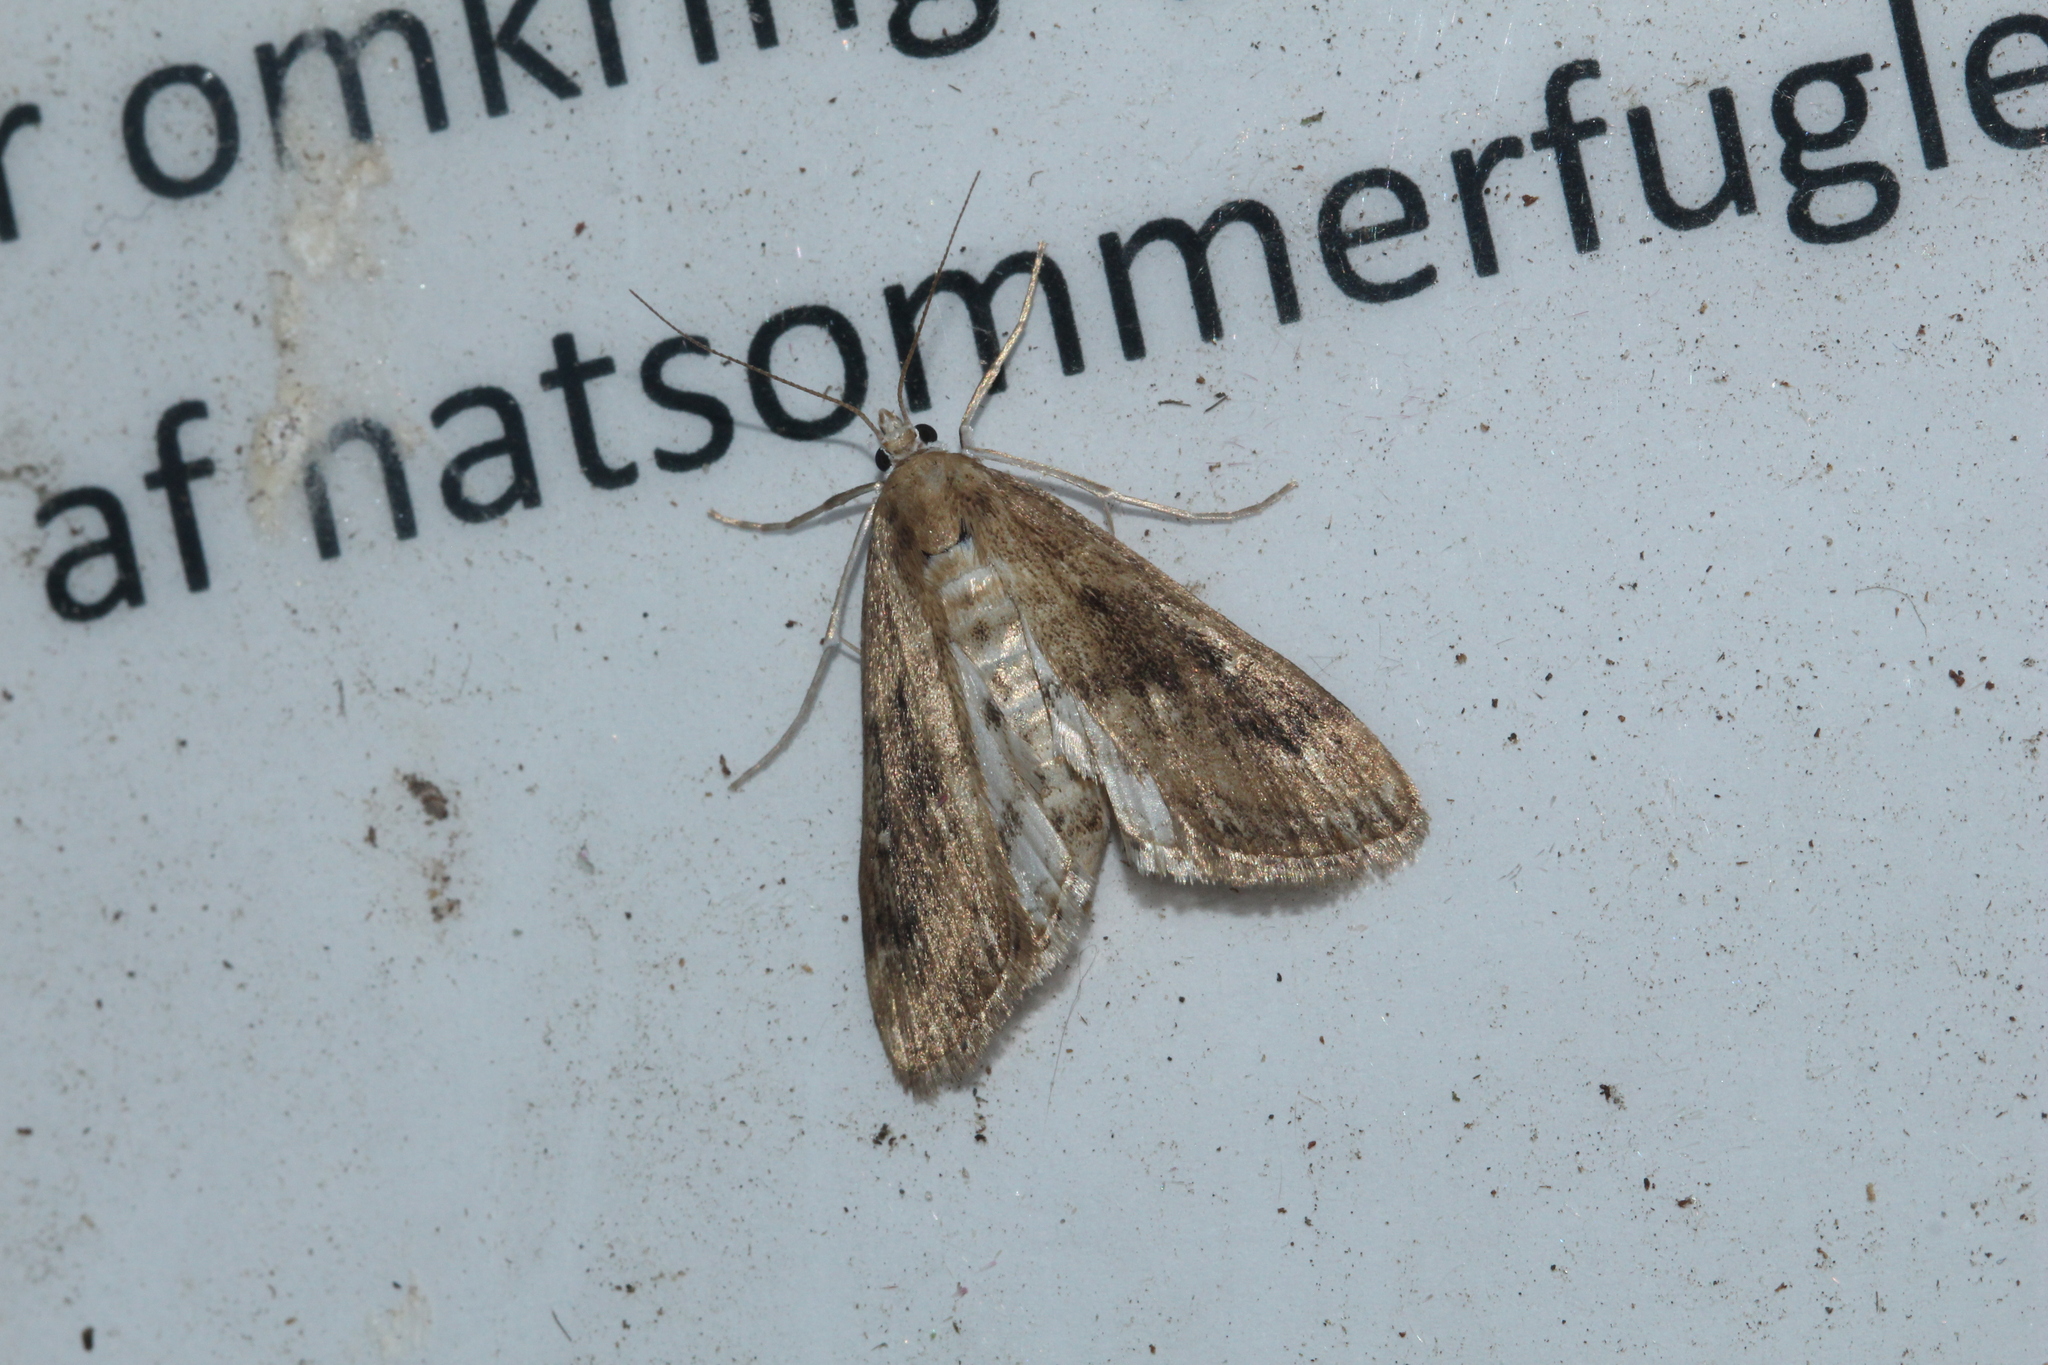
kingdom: Animalia
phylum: Arthropoda
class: Insecta
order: Lepidoptera
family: Crambidae
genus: Parapoynx
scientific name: Parapoynx stratiotata
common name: Ringed china-mark
